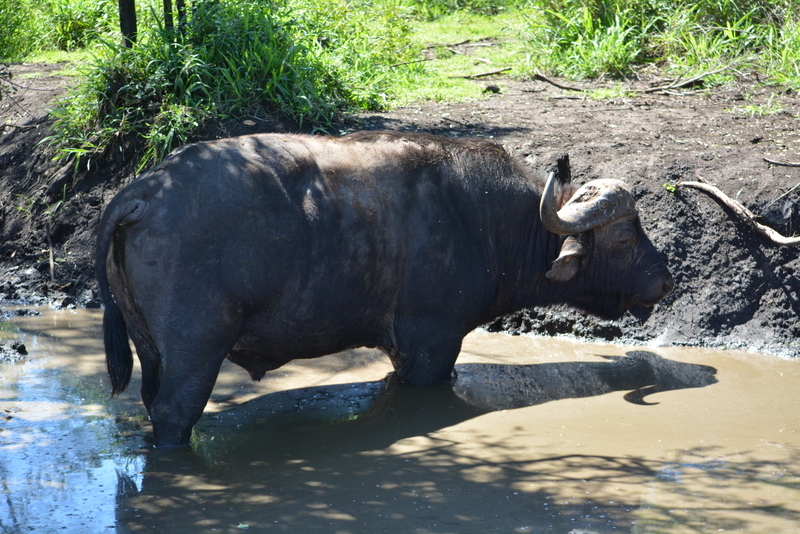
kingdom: Animalia
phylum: Chordata
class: Mammalia
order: Artiodactyla
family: Bovidae
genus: Syncerus
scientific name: Syncerus caffer
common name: African buffalo
